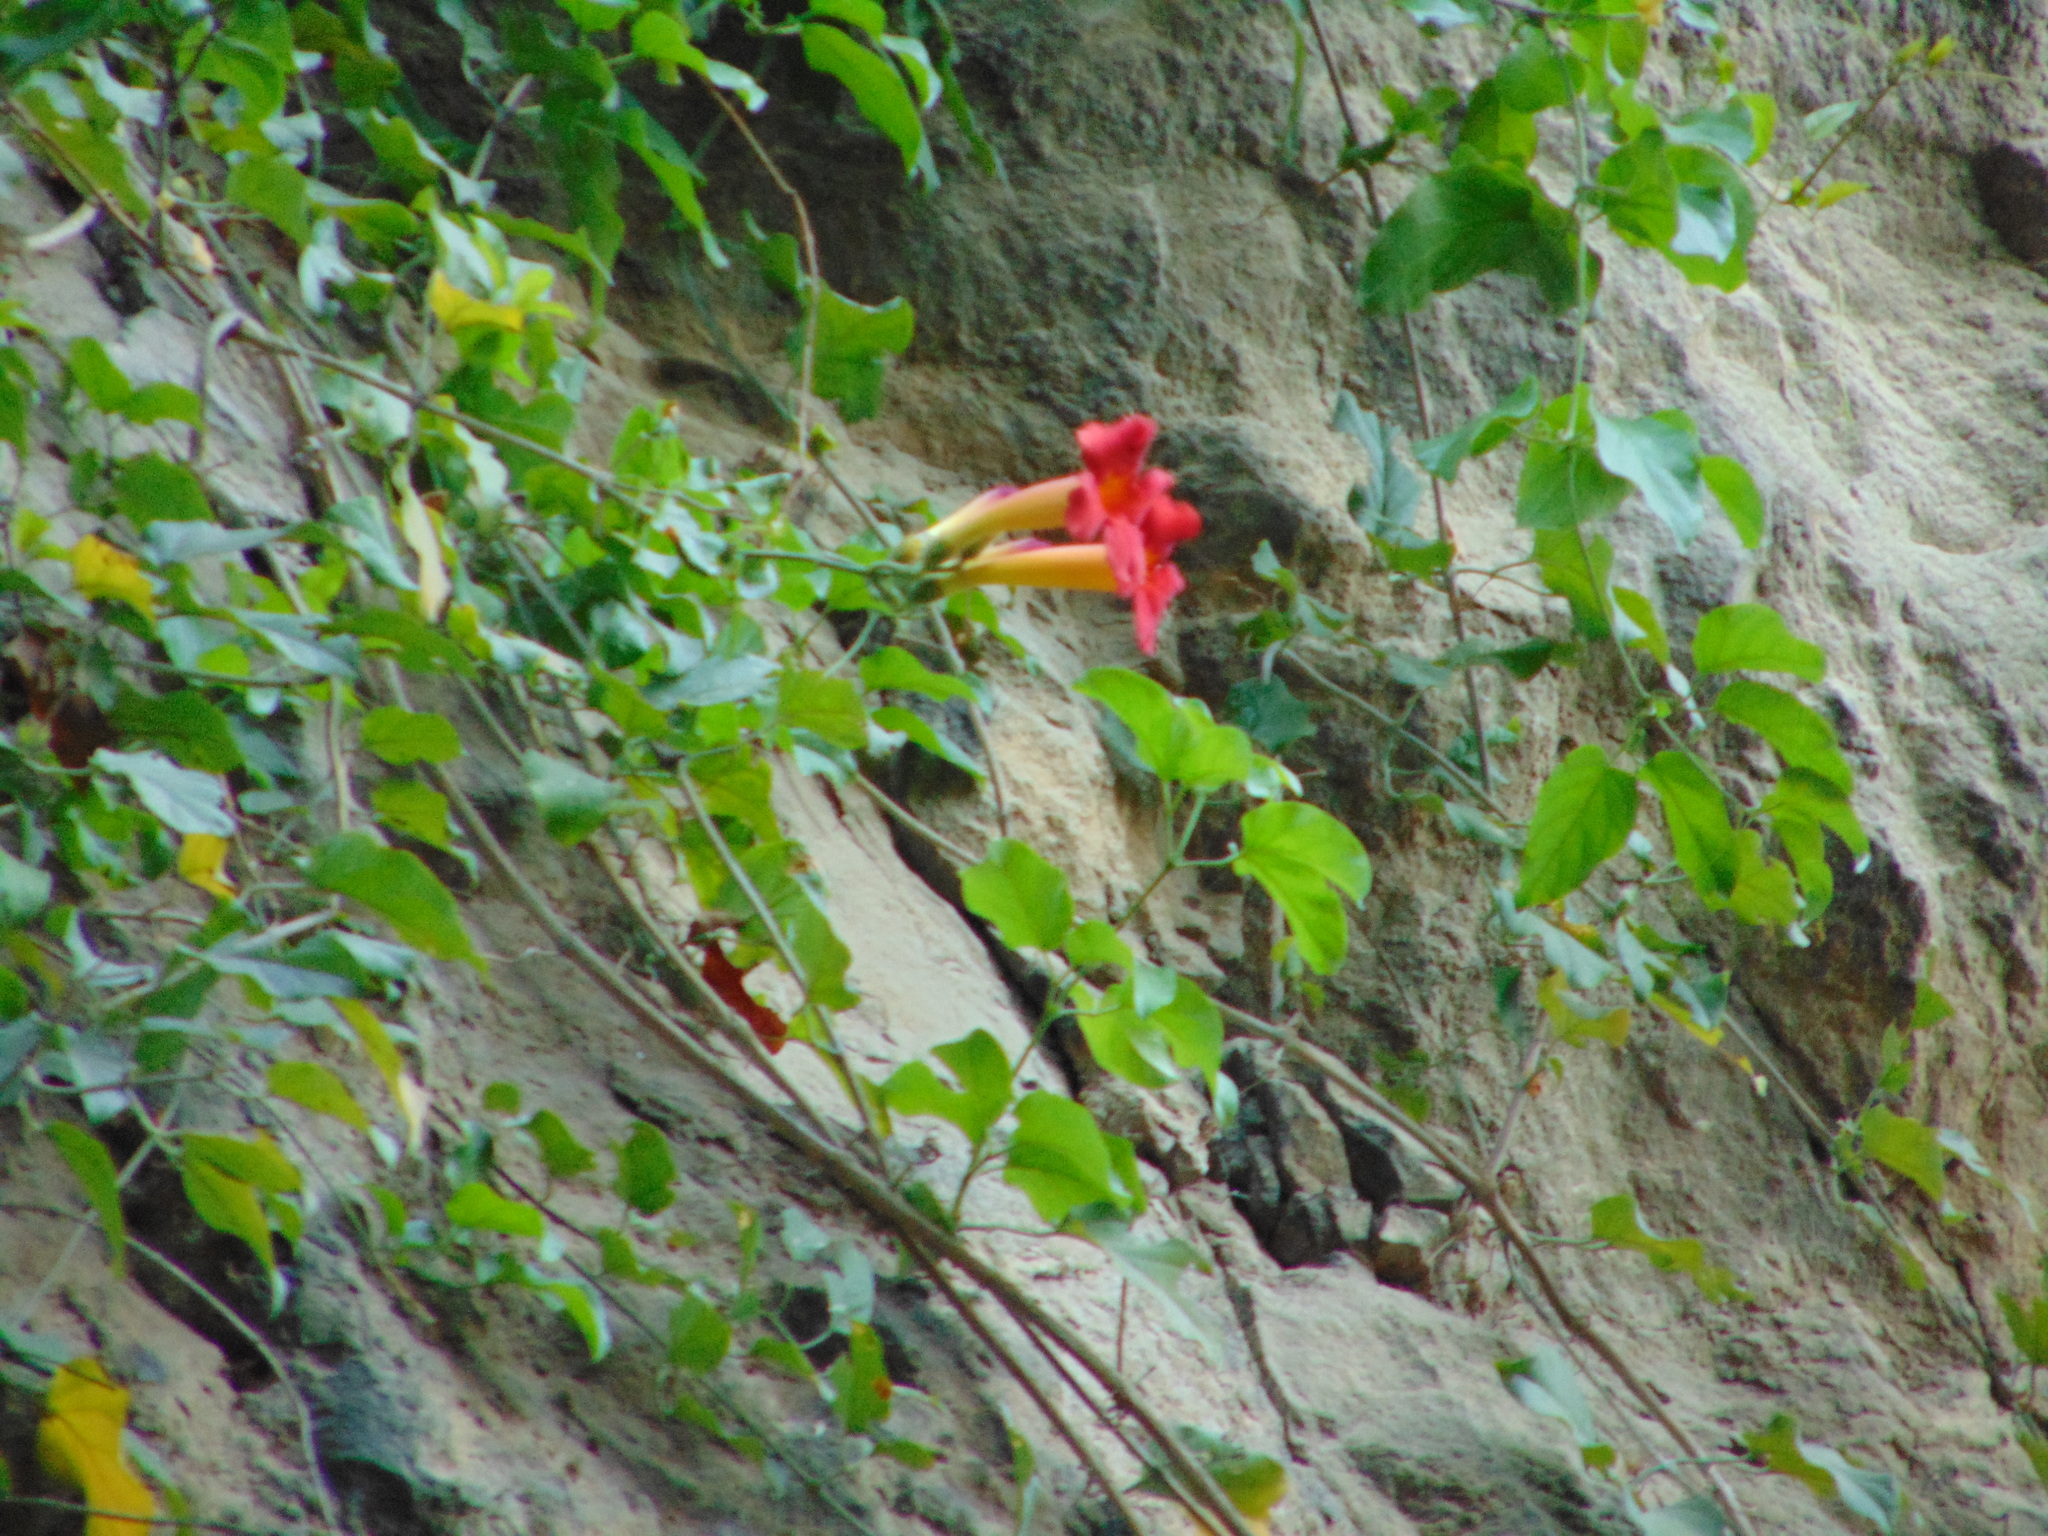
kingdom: Plantae
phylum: Tracheophyta
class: Magnoliopsida
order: Lamiales
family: Bignoniaceae
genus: Amphilophium
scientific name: Amphilophium buccinatorium
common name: Mexican blood-flower
